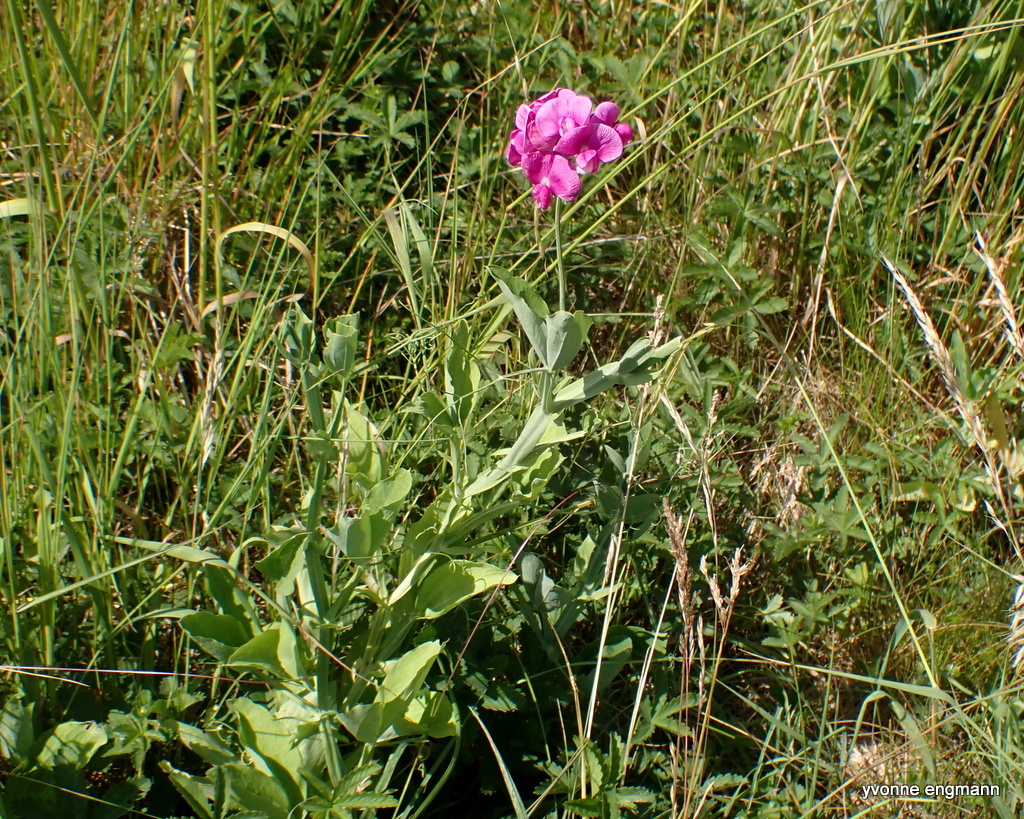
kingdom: Plantae
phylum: Tracheophyta
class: Magnoliopsida
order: Fabales
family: Fabaceae
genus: Lathyrus
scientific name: Lathyrus latifolius
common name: Perennial pea
